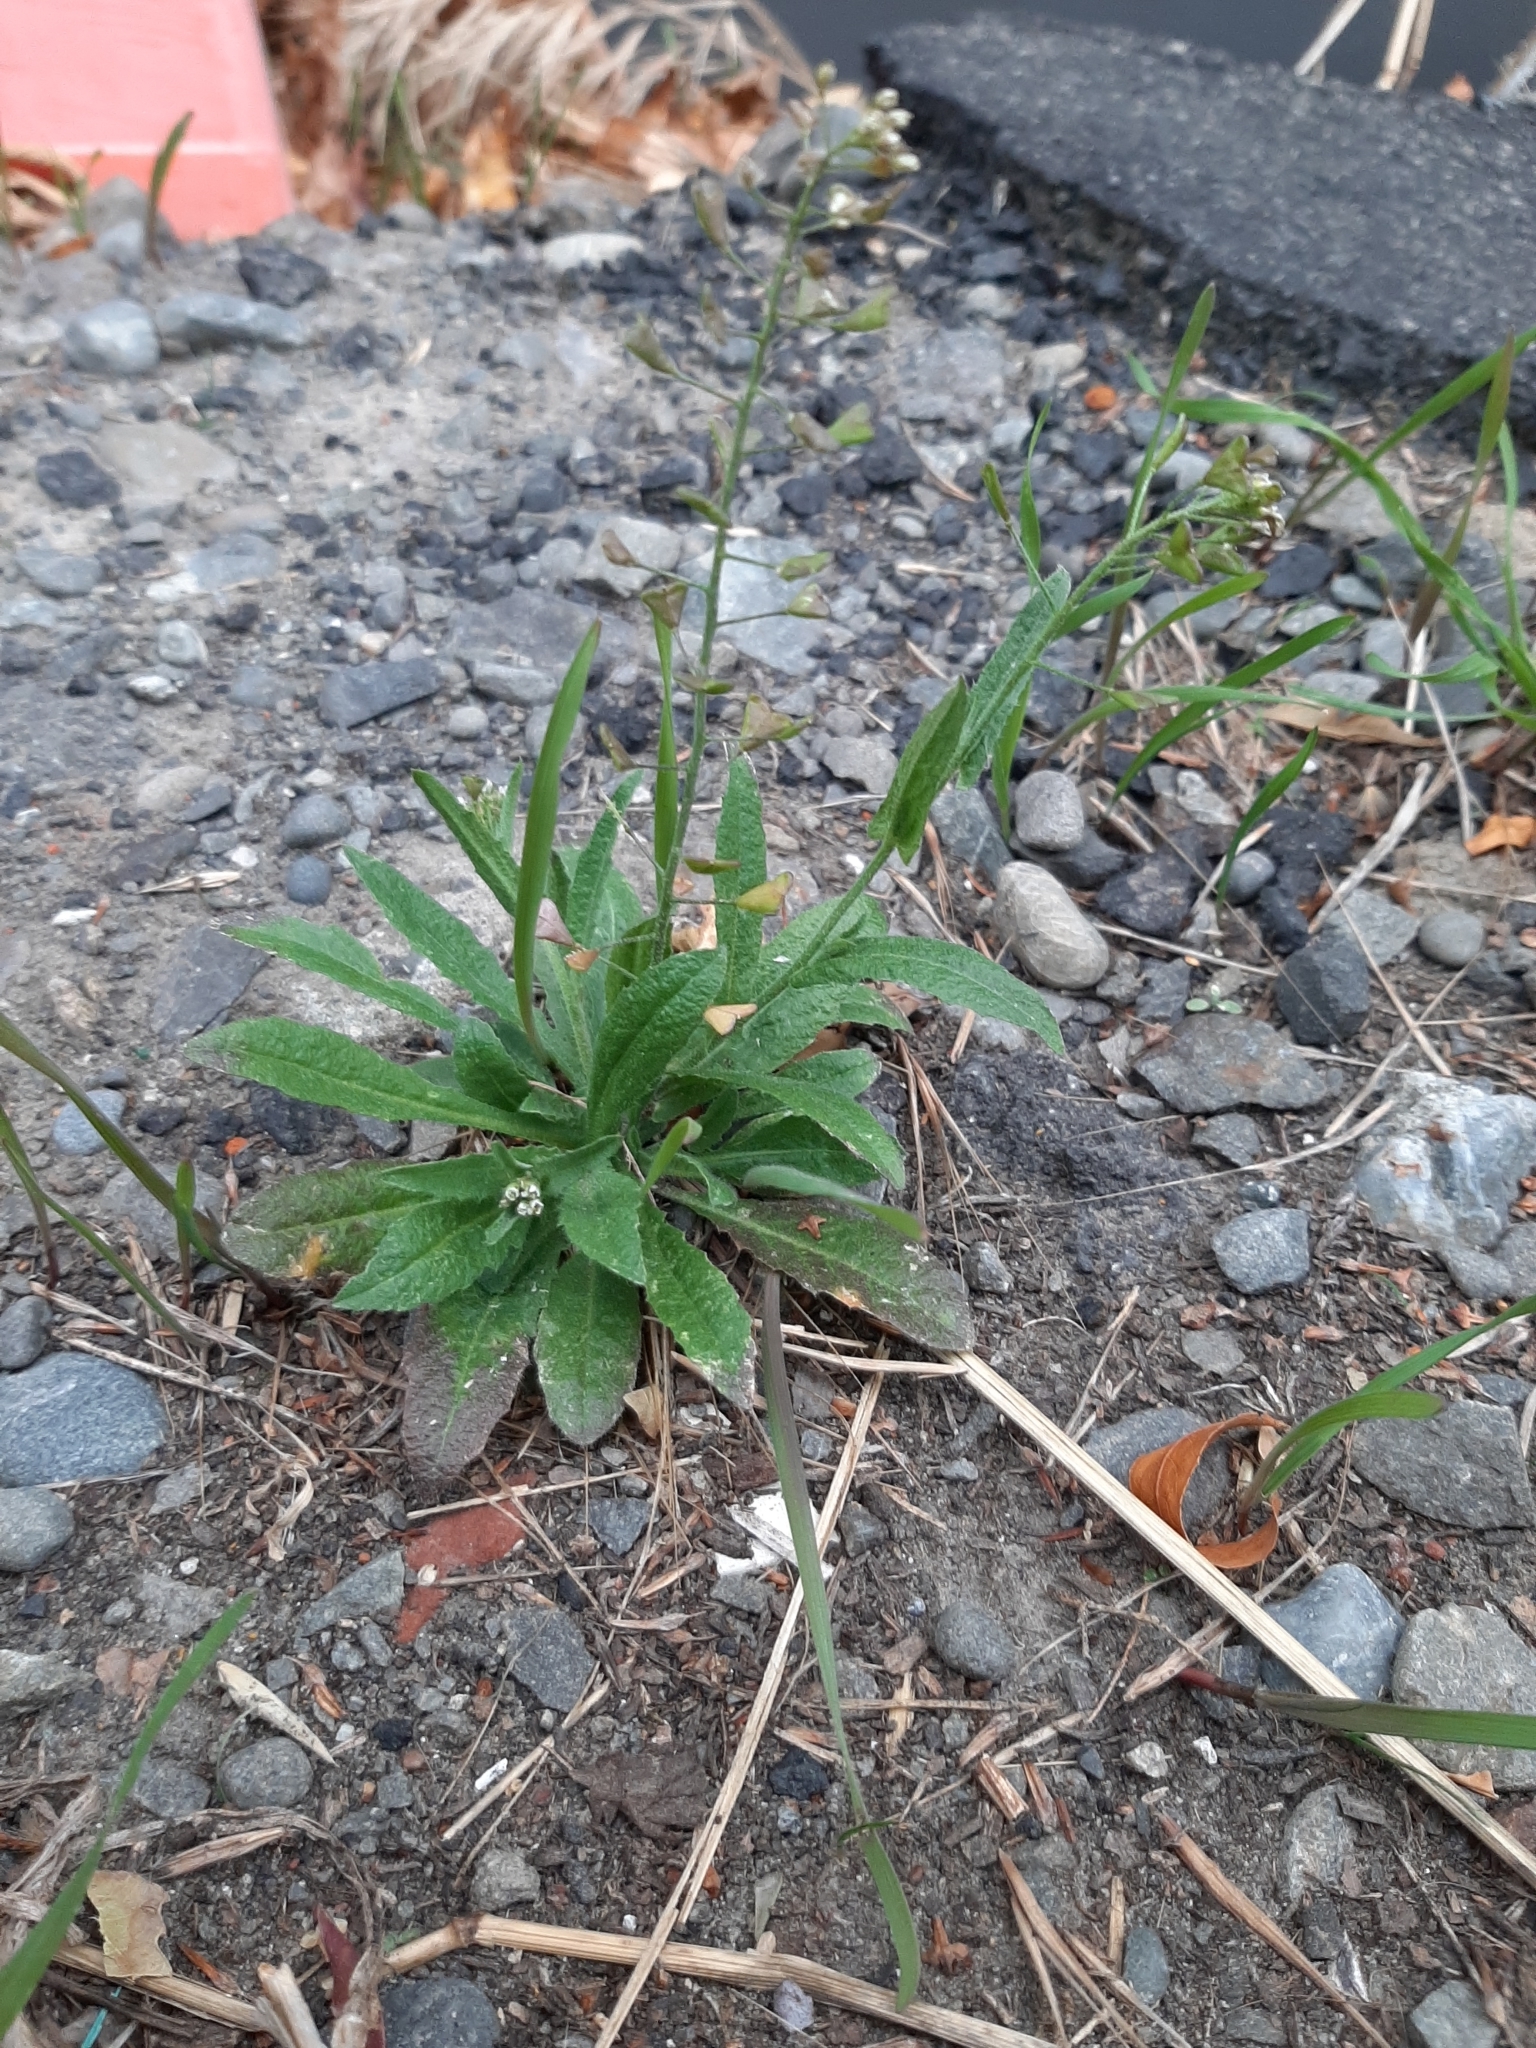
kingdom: Plantae
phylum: Tracheophyta
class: Magnoliopsida
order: Brassicales
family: Brassicaceae
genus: Capsella
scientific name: Capsella bursa-pastoris
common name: Shepherd's purse
